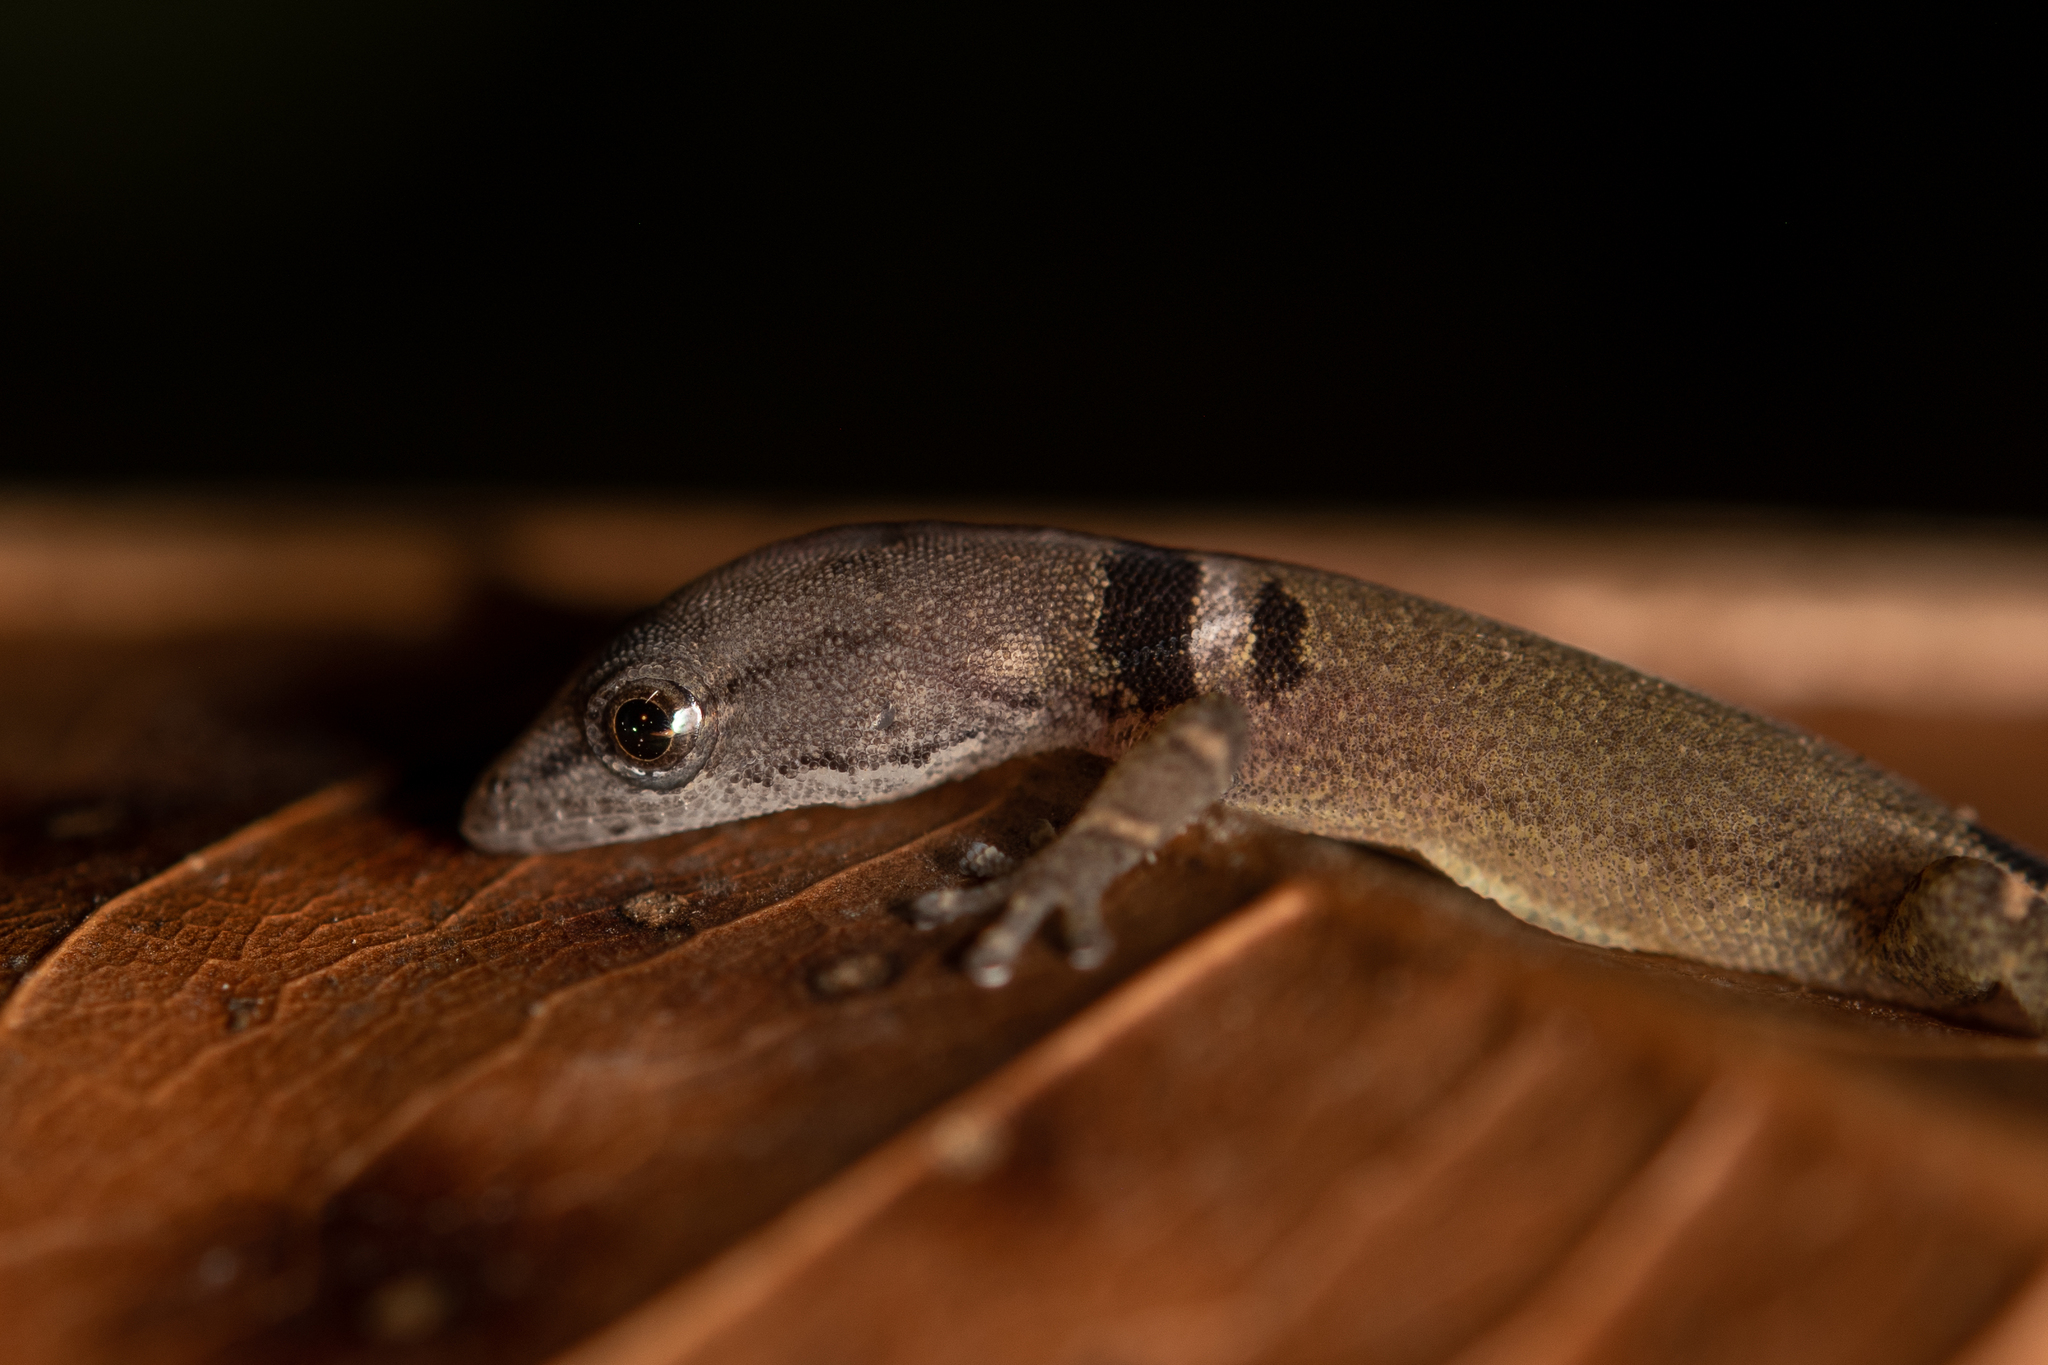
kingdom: Animalia
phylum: Chordata
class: Squamata
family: Sphaerodactylidae
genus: Sphaerodactylus
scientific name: Sphaerodactylus continentalis
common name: Upper central american geckolet
